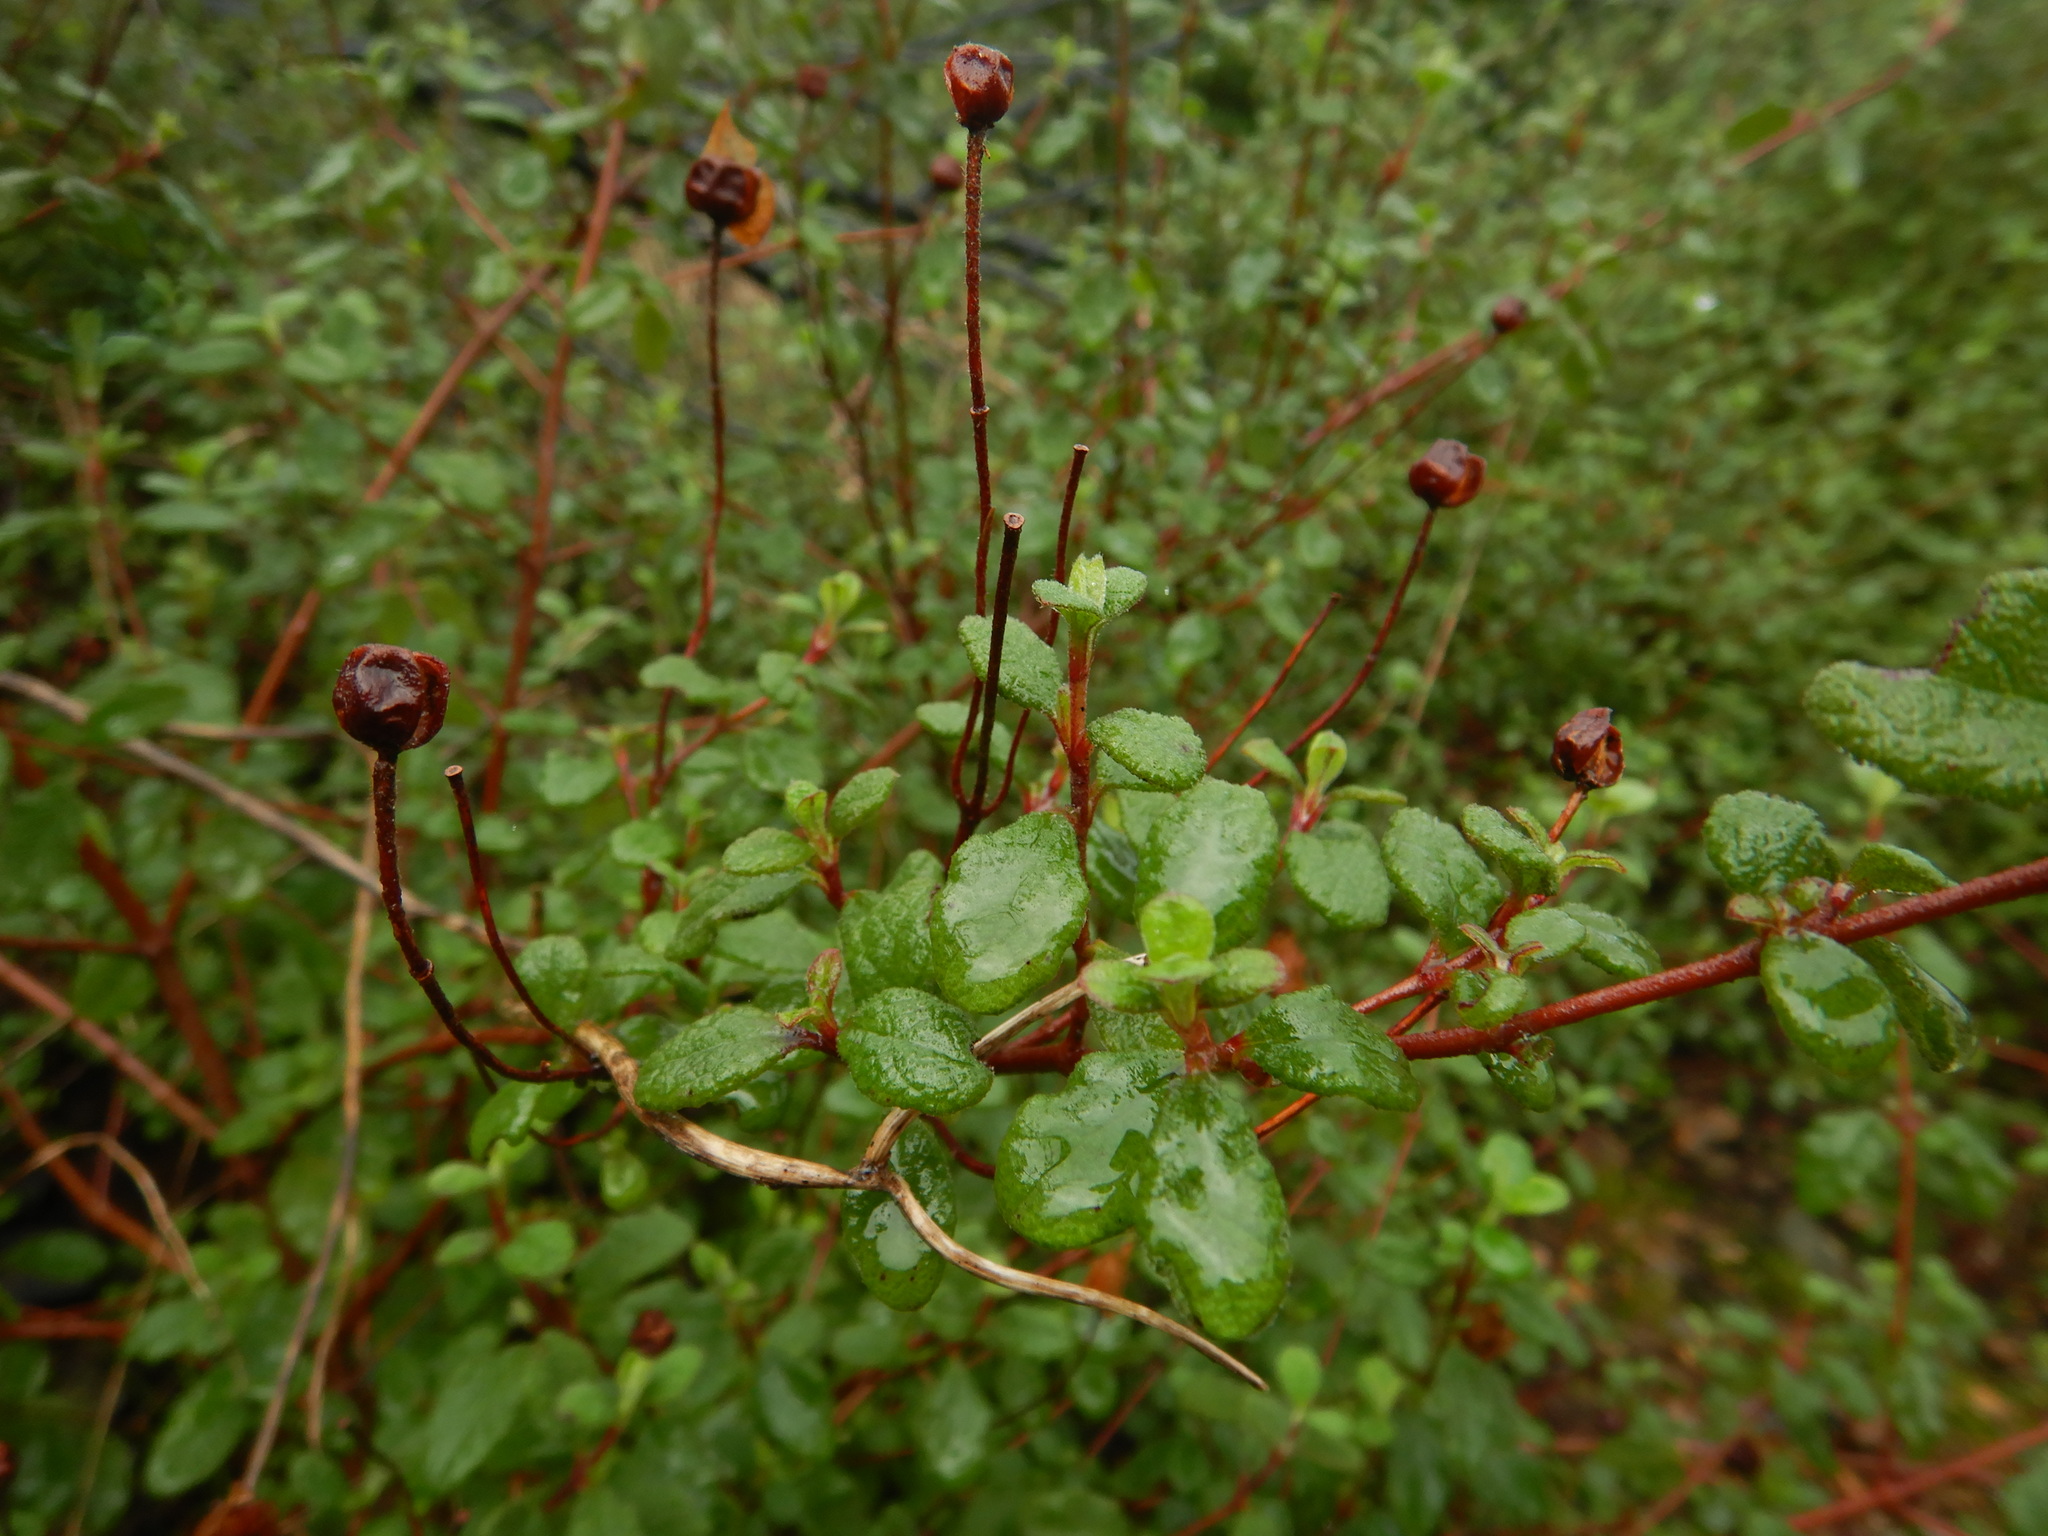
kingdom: Plantae
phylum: Tracheophyta
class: Magnoliopsida
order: Malvales
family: Cistaceae
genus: Cistus
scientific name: Cistus salviifolius
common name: Salvia cistus
